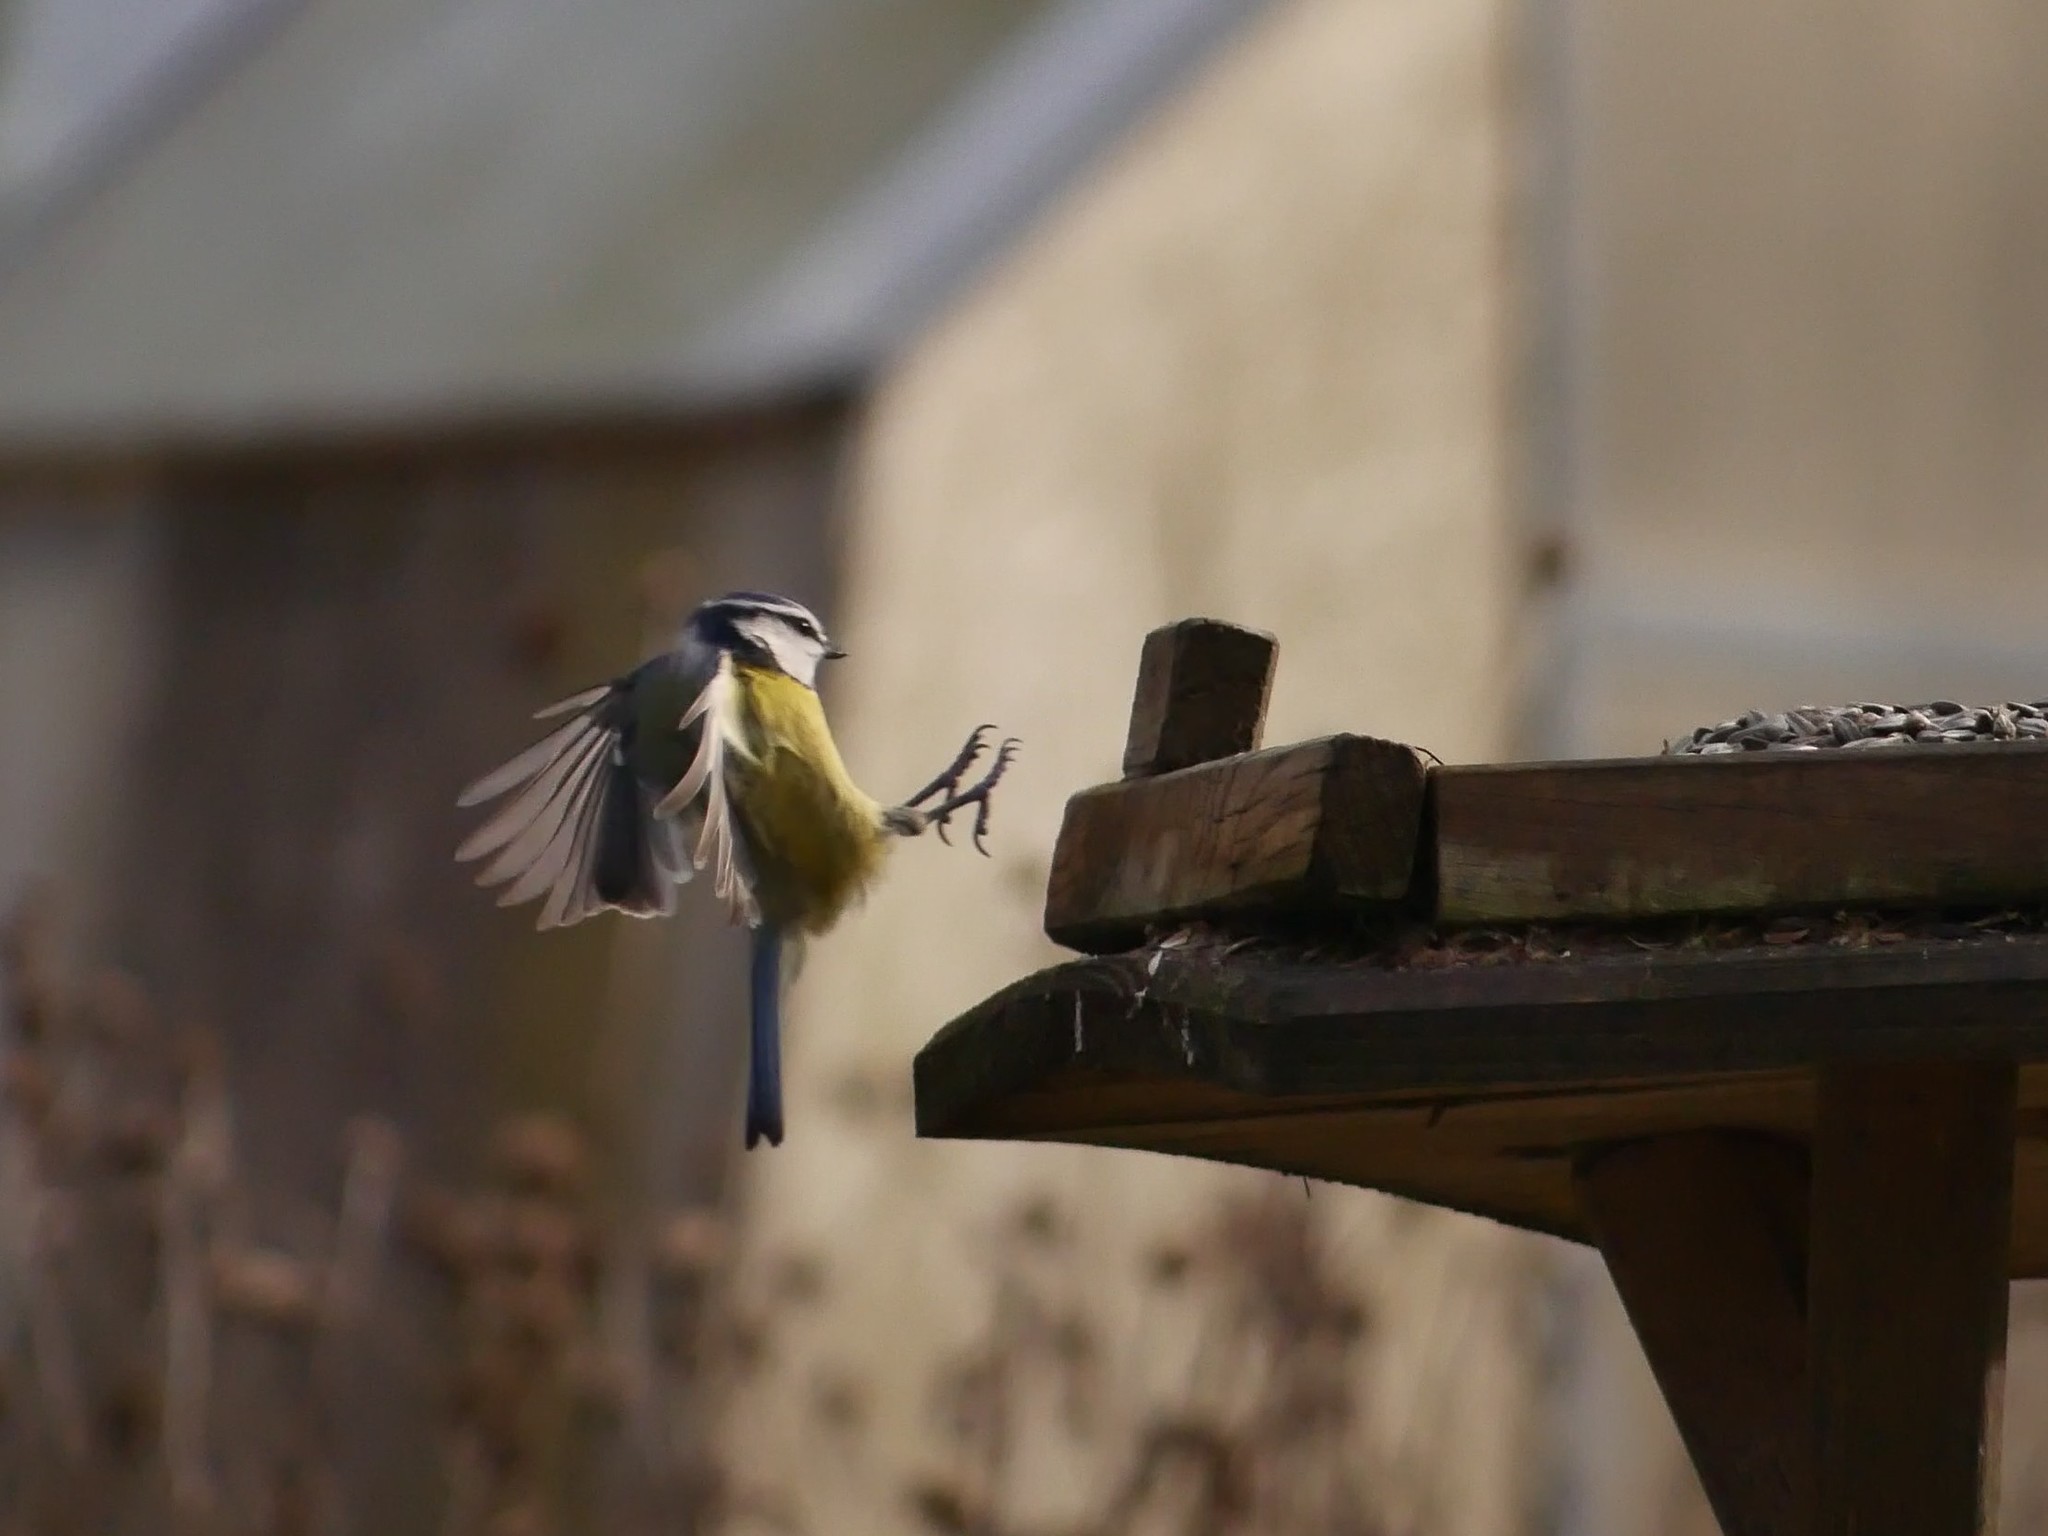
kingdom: Animalia
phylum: Chordata
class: Aves
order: Passeriformes
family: Paridae
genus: Cyanistes
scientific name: Cyanistes caeruleus
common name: Eurasian blue tit
